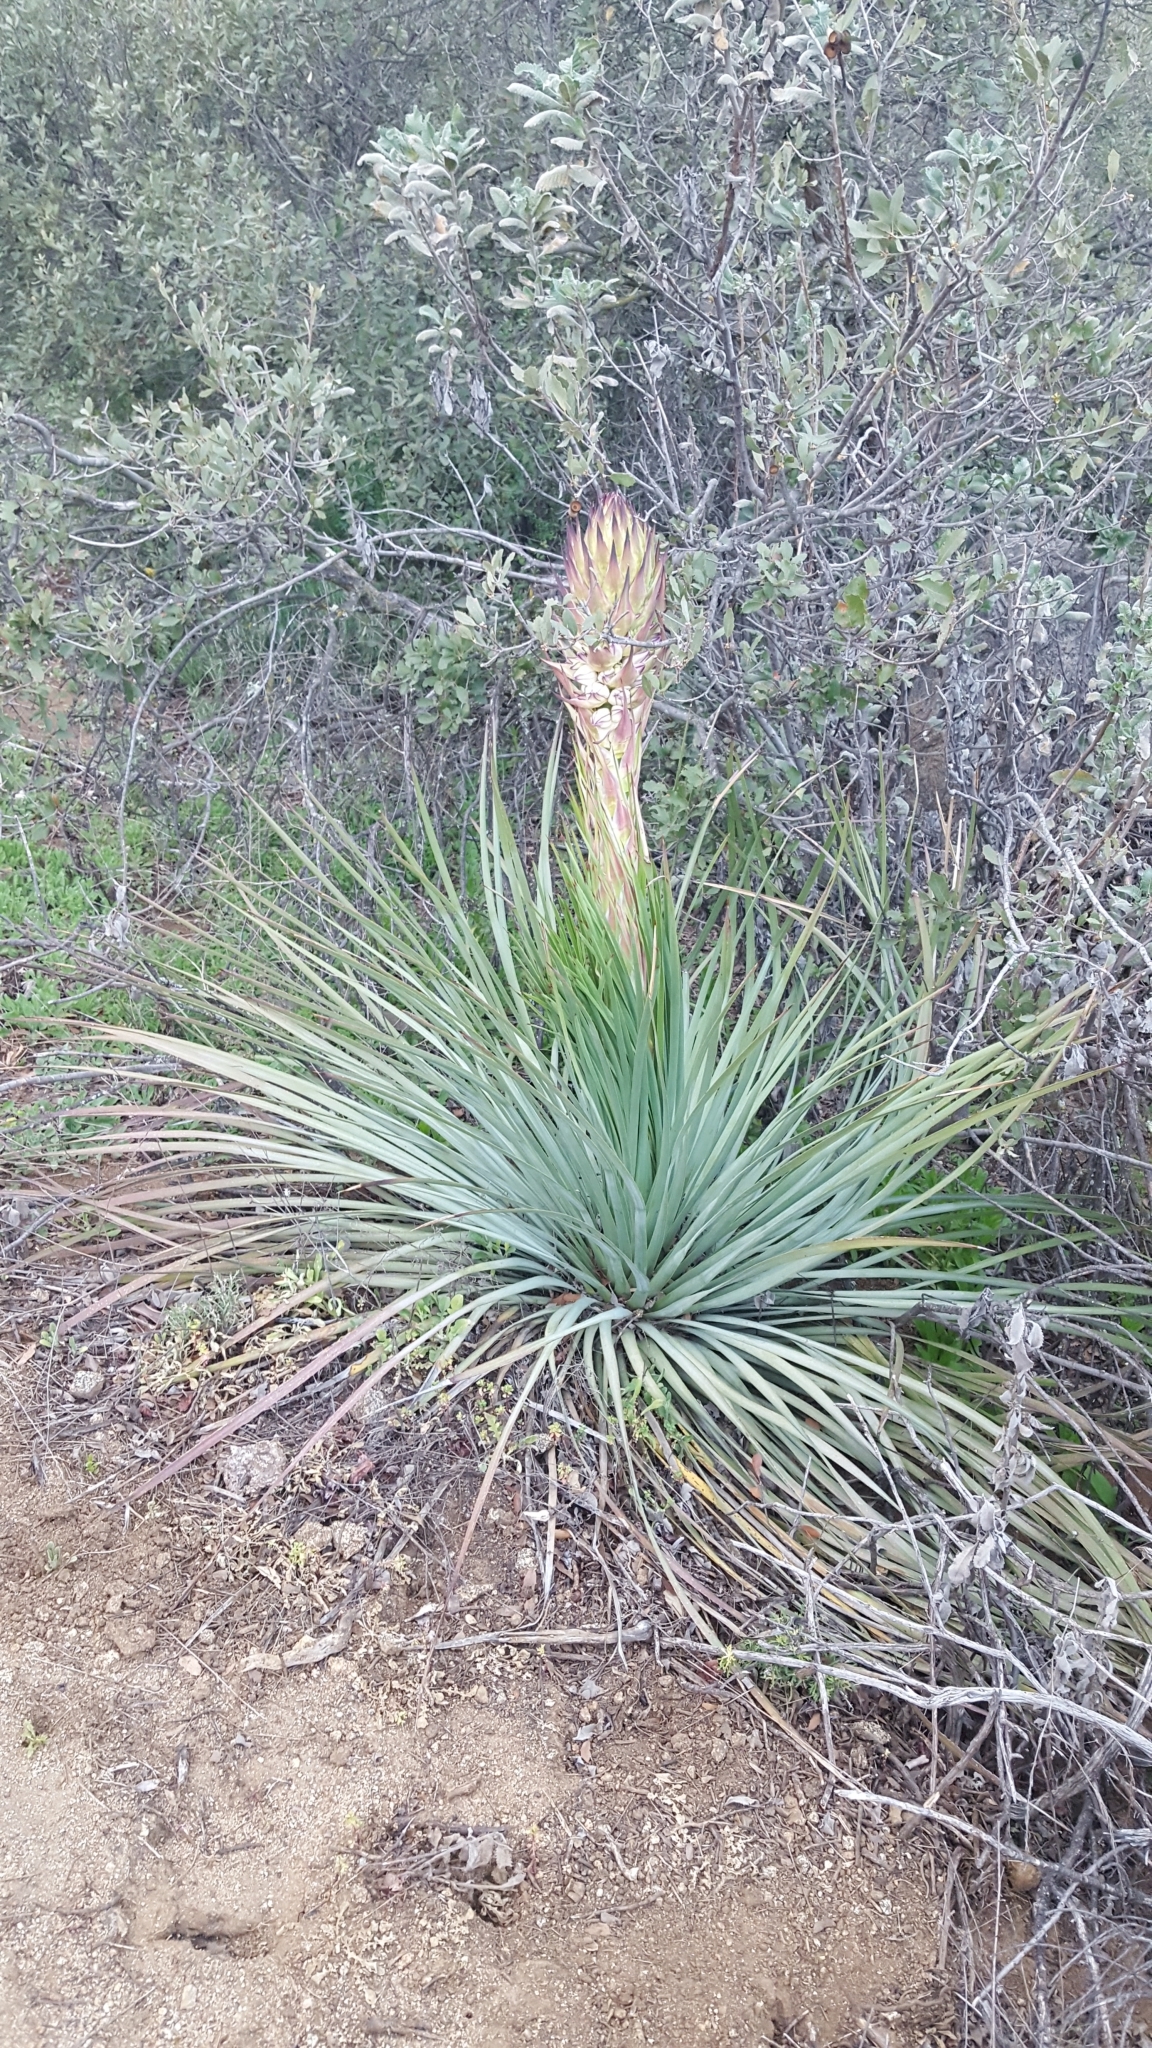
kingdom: Plantae
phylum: Tracheophyta
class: Liliopsida
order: Asparagales
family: Asparagaceae
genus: Hesperoyucca
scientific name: Hesperoyucca whipplei
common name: Our lord's-candle
